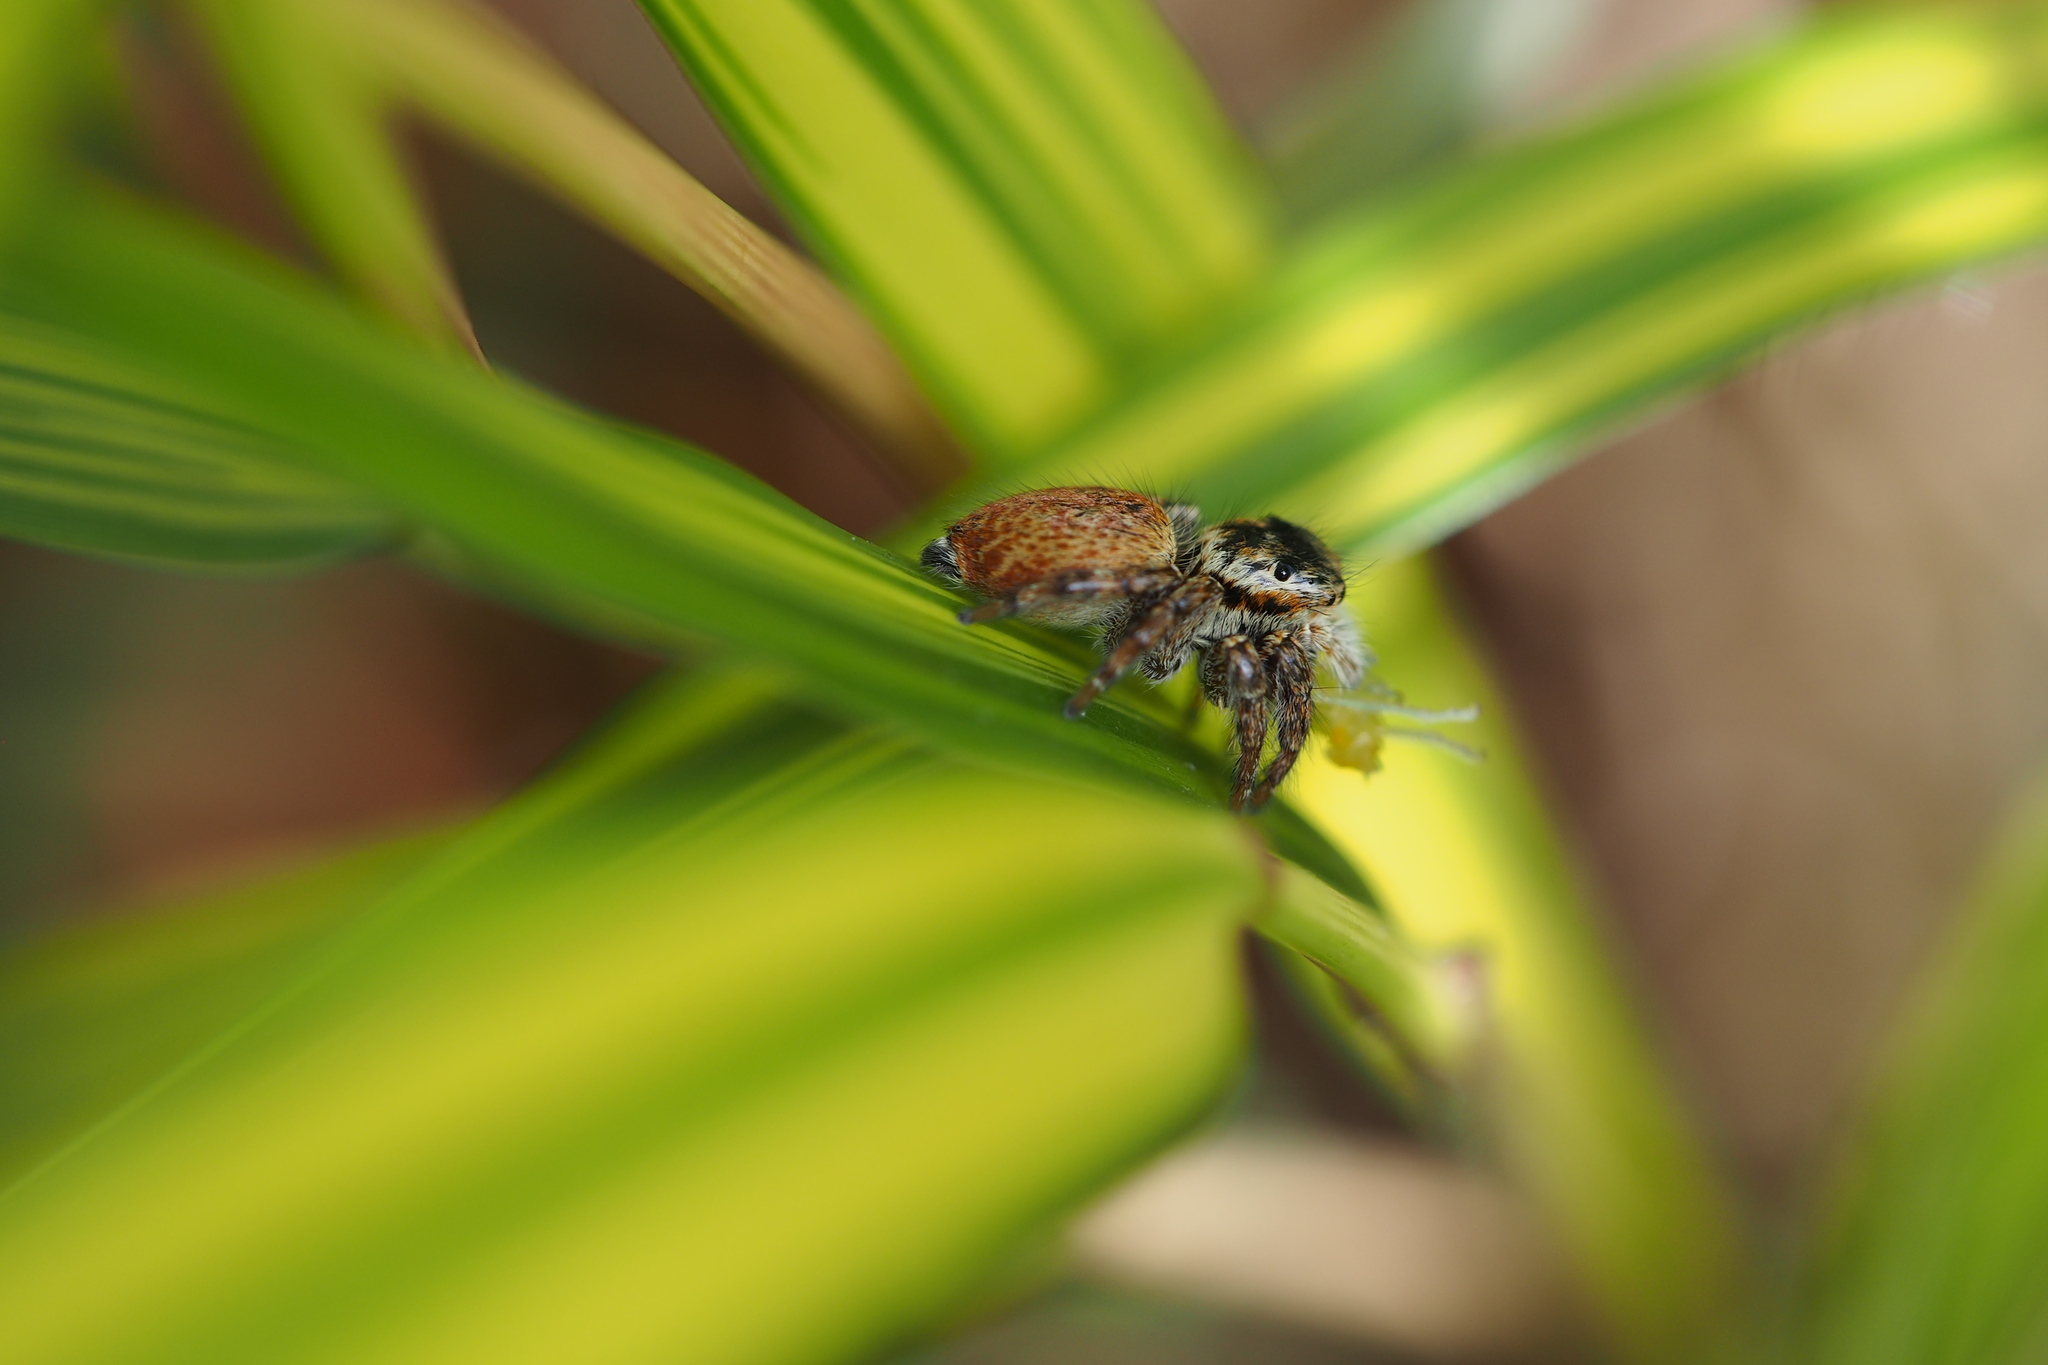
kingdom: Animalia
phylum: Arthropoda
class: Arachnida
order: Araneae
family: Salticidae
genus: Carrhotus
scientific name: Carrhotus xanthogramma
